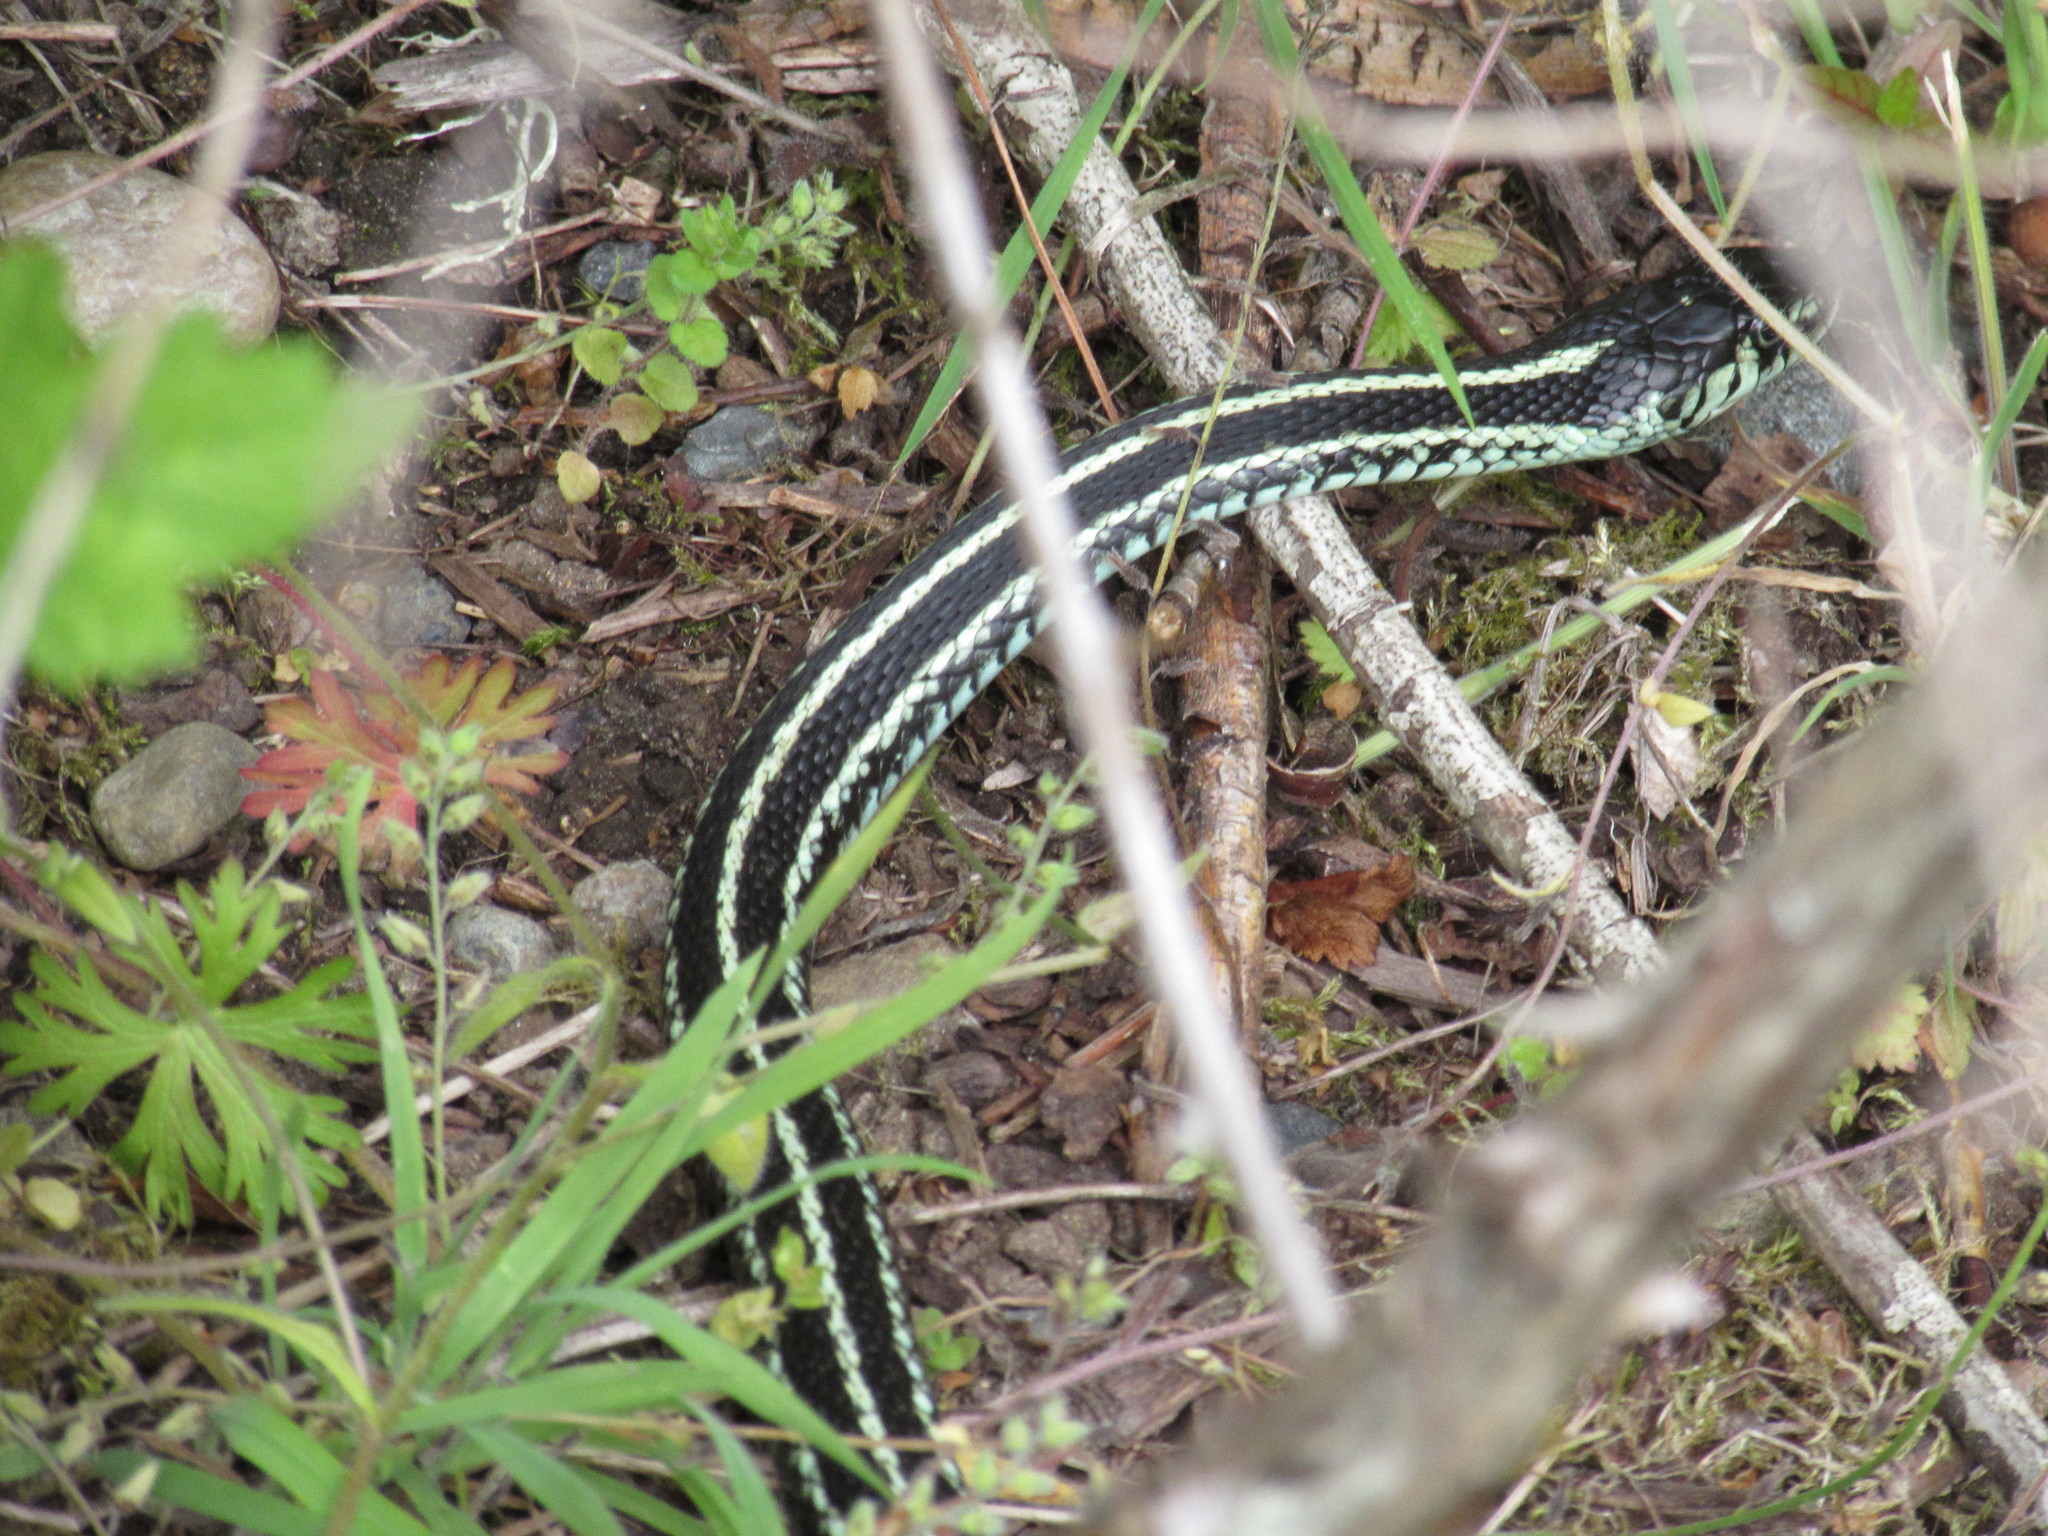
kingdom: Animalia
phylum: Chordata
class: Squamata
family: Colubridae
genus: Thamnophis
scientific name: Thamnophis sirtalis
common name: Common garter snake
